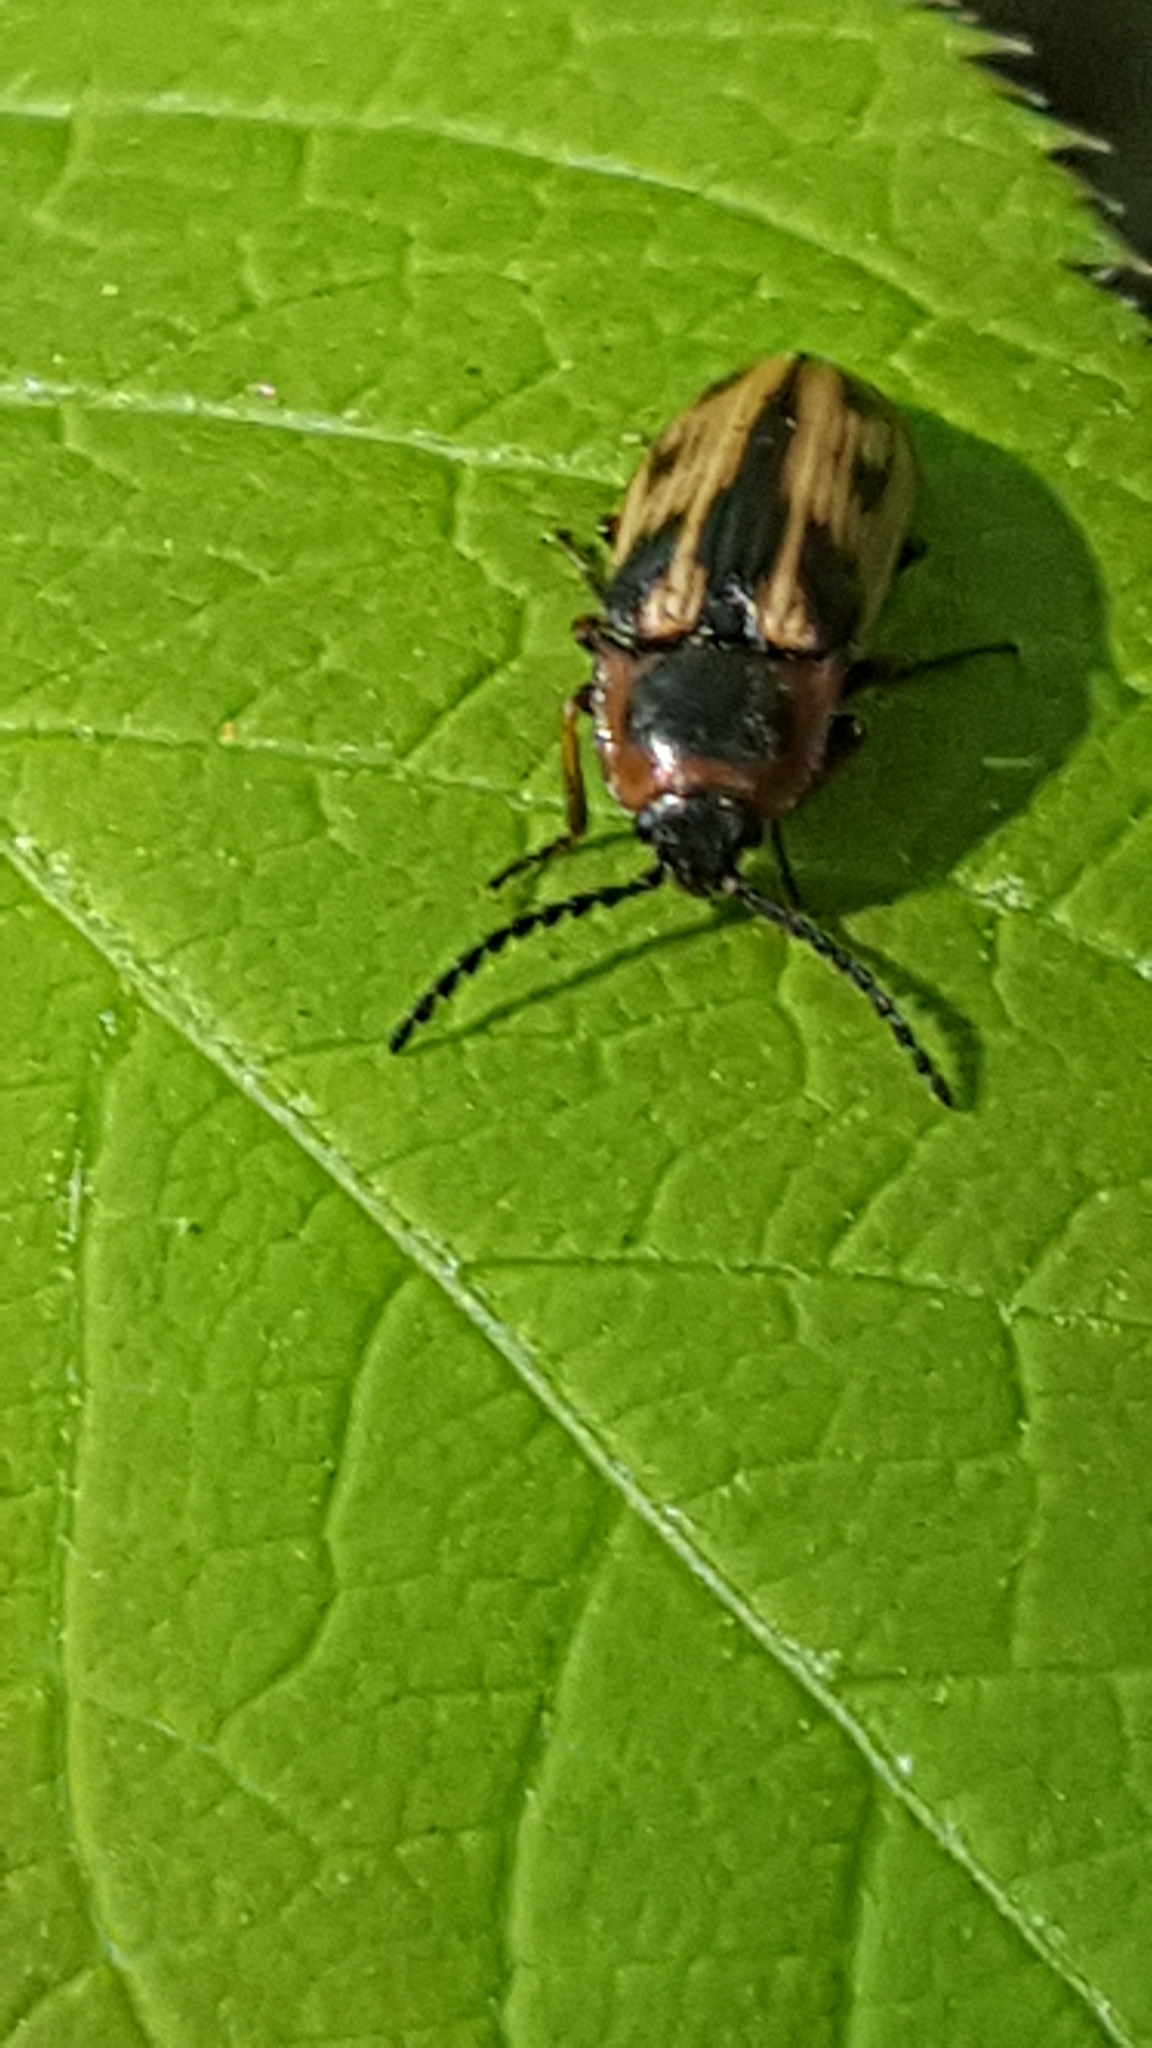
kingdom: Animalia
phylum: Arthropoda
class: Insecta
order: Coleoptera
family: Elateridae
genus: Beckerus
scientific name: Beckerus appressus
